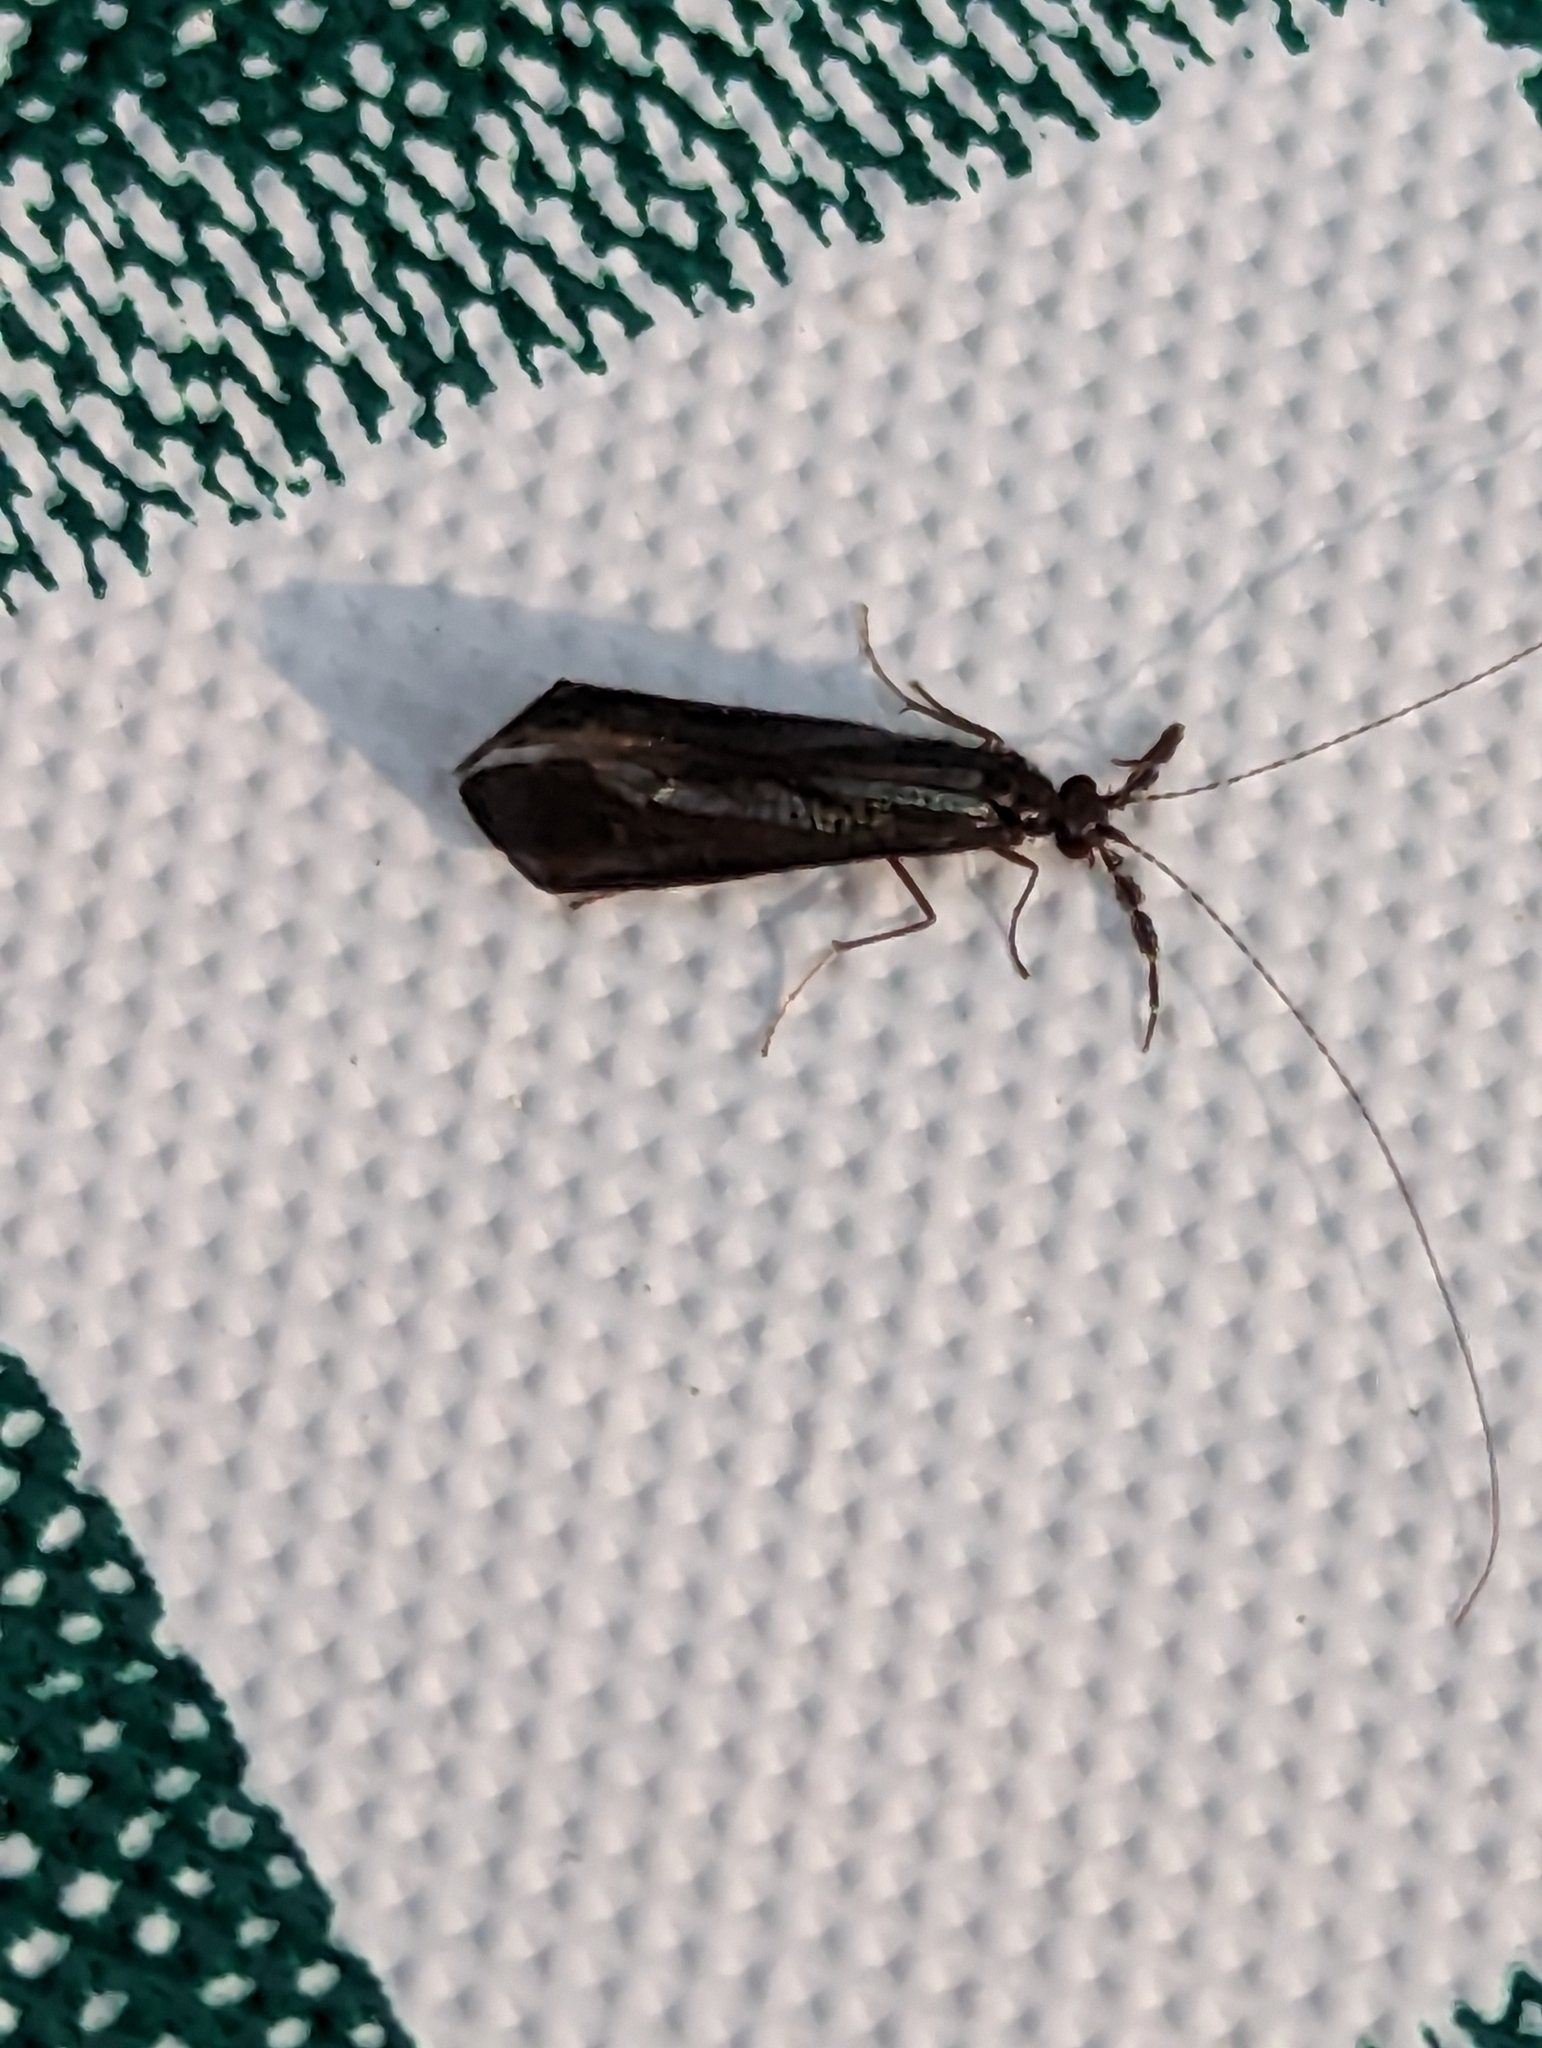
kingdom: Animalia
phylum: Arthropoda
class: Insecta
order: Trichoptera
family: Leptoceridae
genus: Mystacides
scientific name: Mystacides sepulchralis
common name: Black dancer caddisfly
